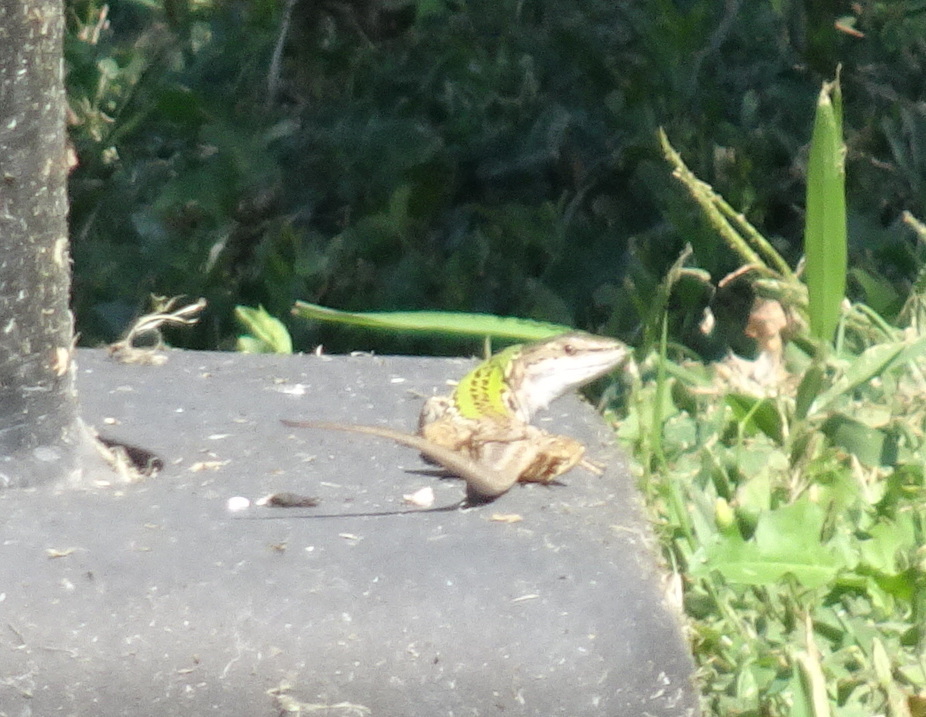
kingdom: Animalia
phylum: Chordata
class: Squamata
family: Lacertidae
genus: Podarcis
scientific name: Podarcis siculus
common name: Italian wall lizard
